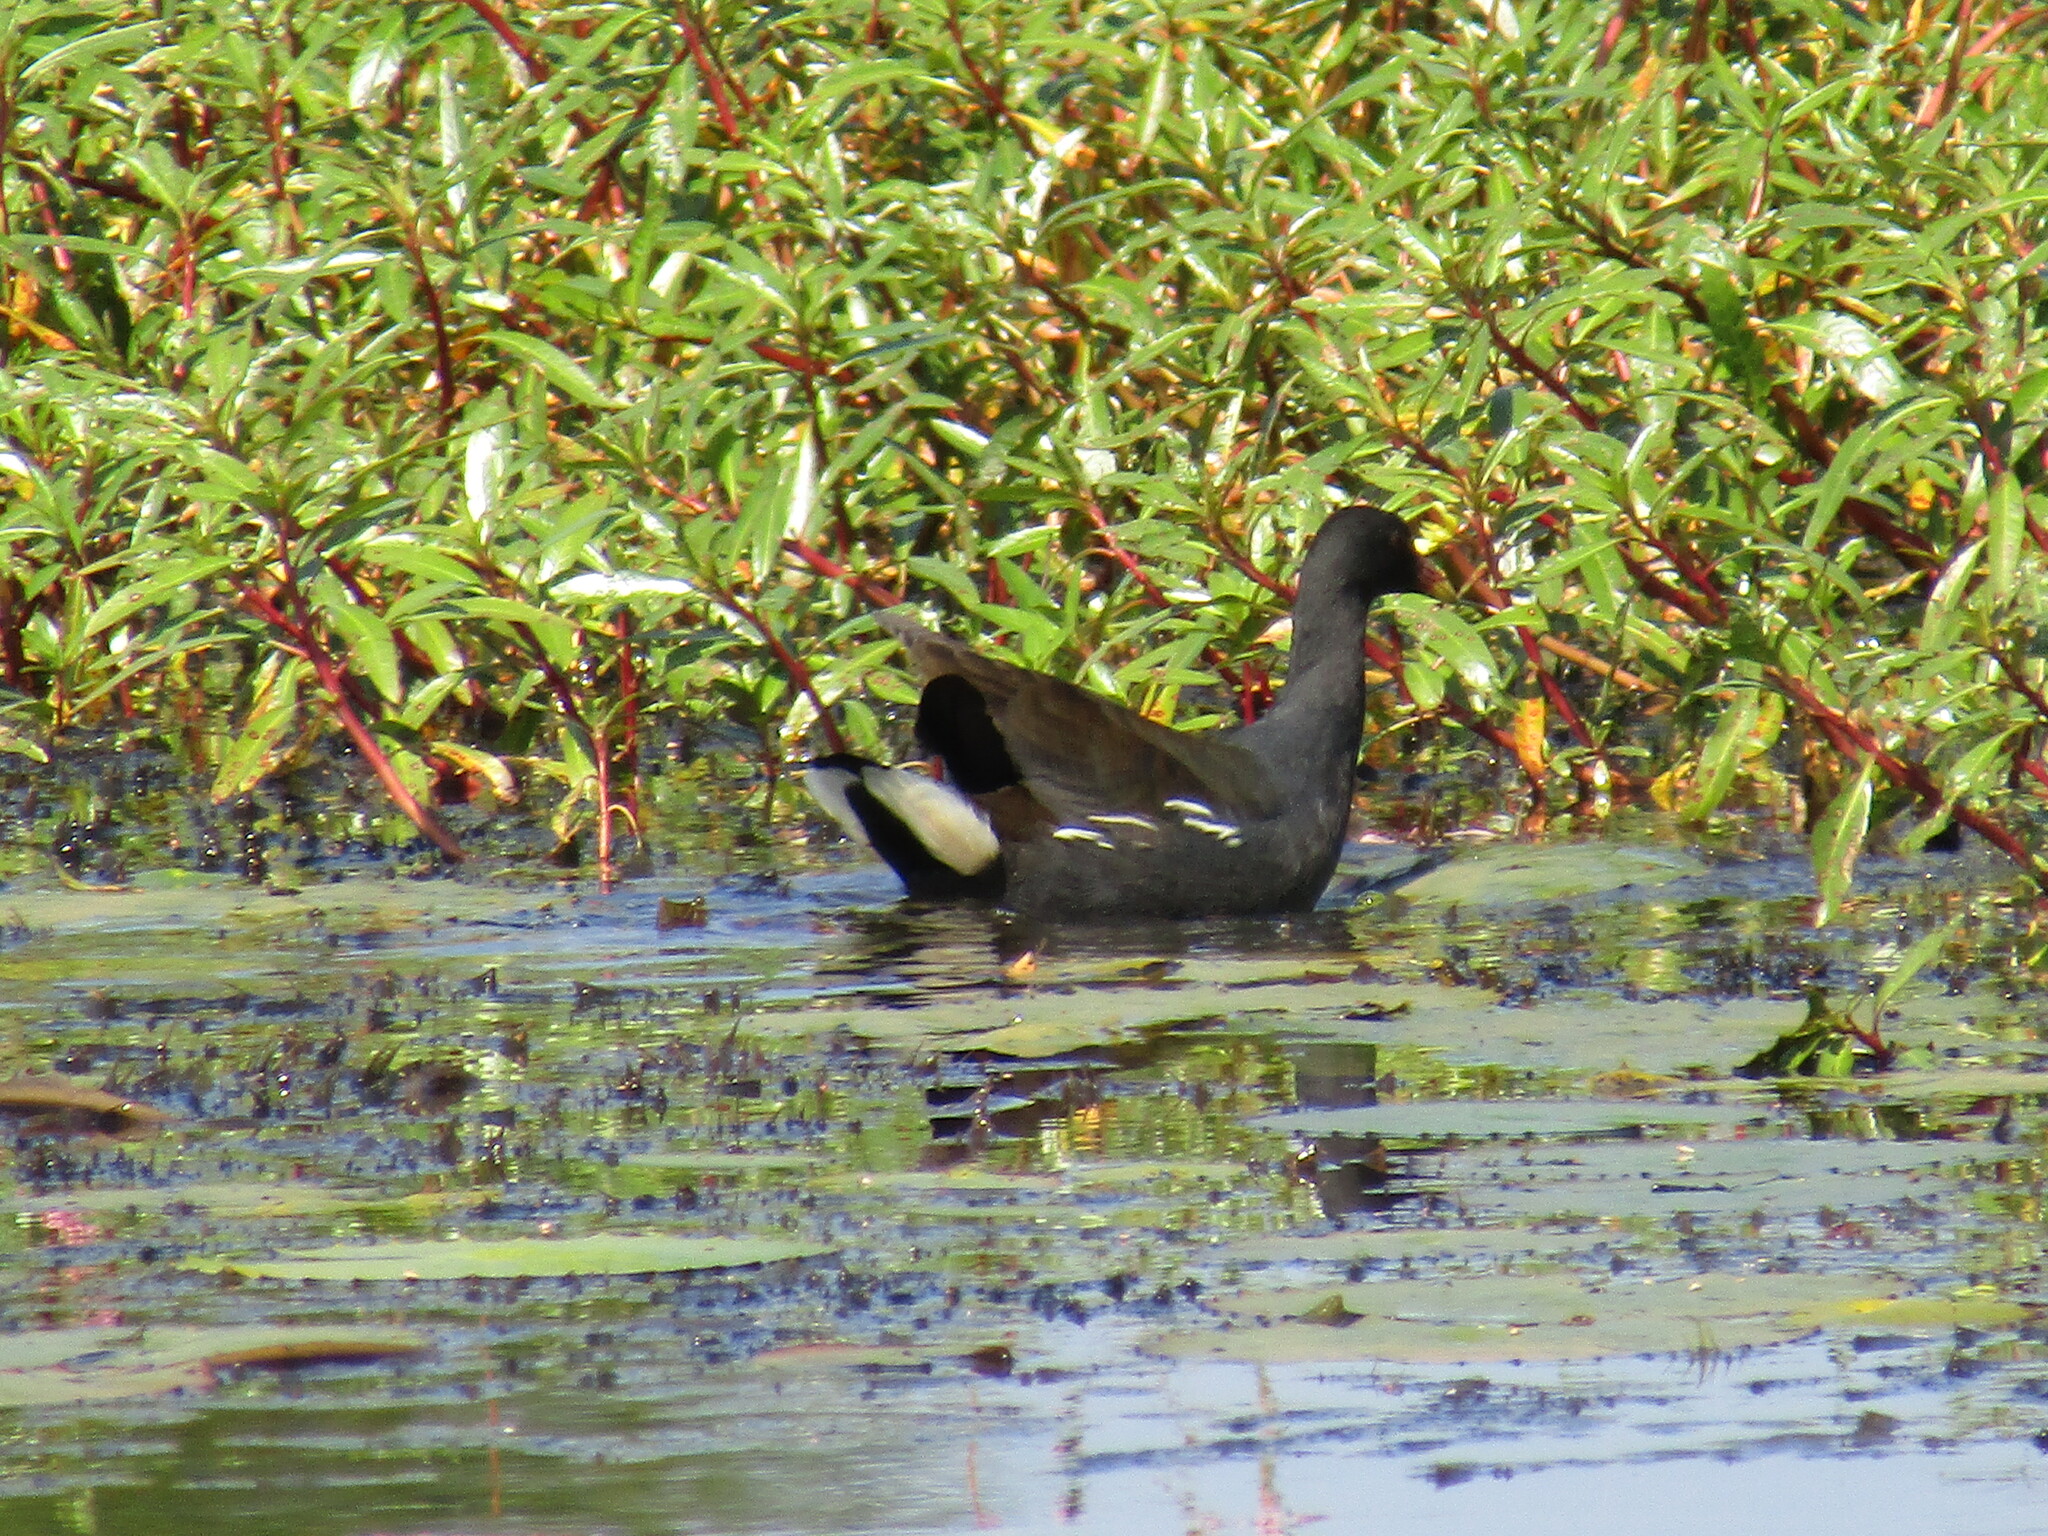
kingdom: Animalia
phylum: Chordata
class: Aves
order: Gruiformes
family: Rallidae
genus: Gallinula
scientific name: Gallinula chloropus
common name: Common moorhen
